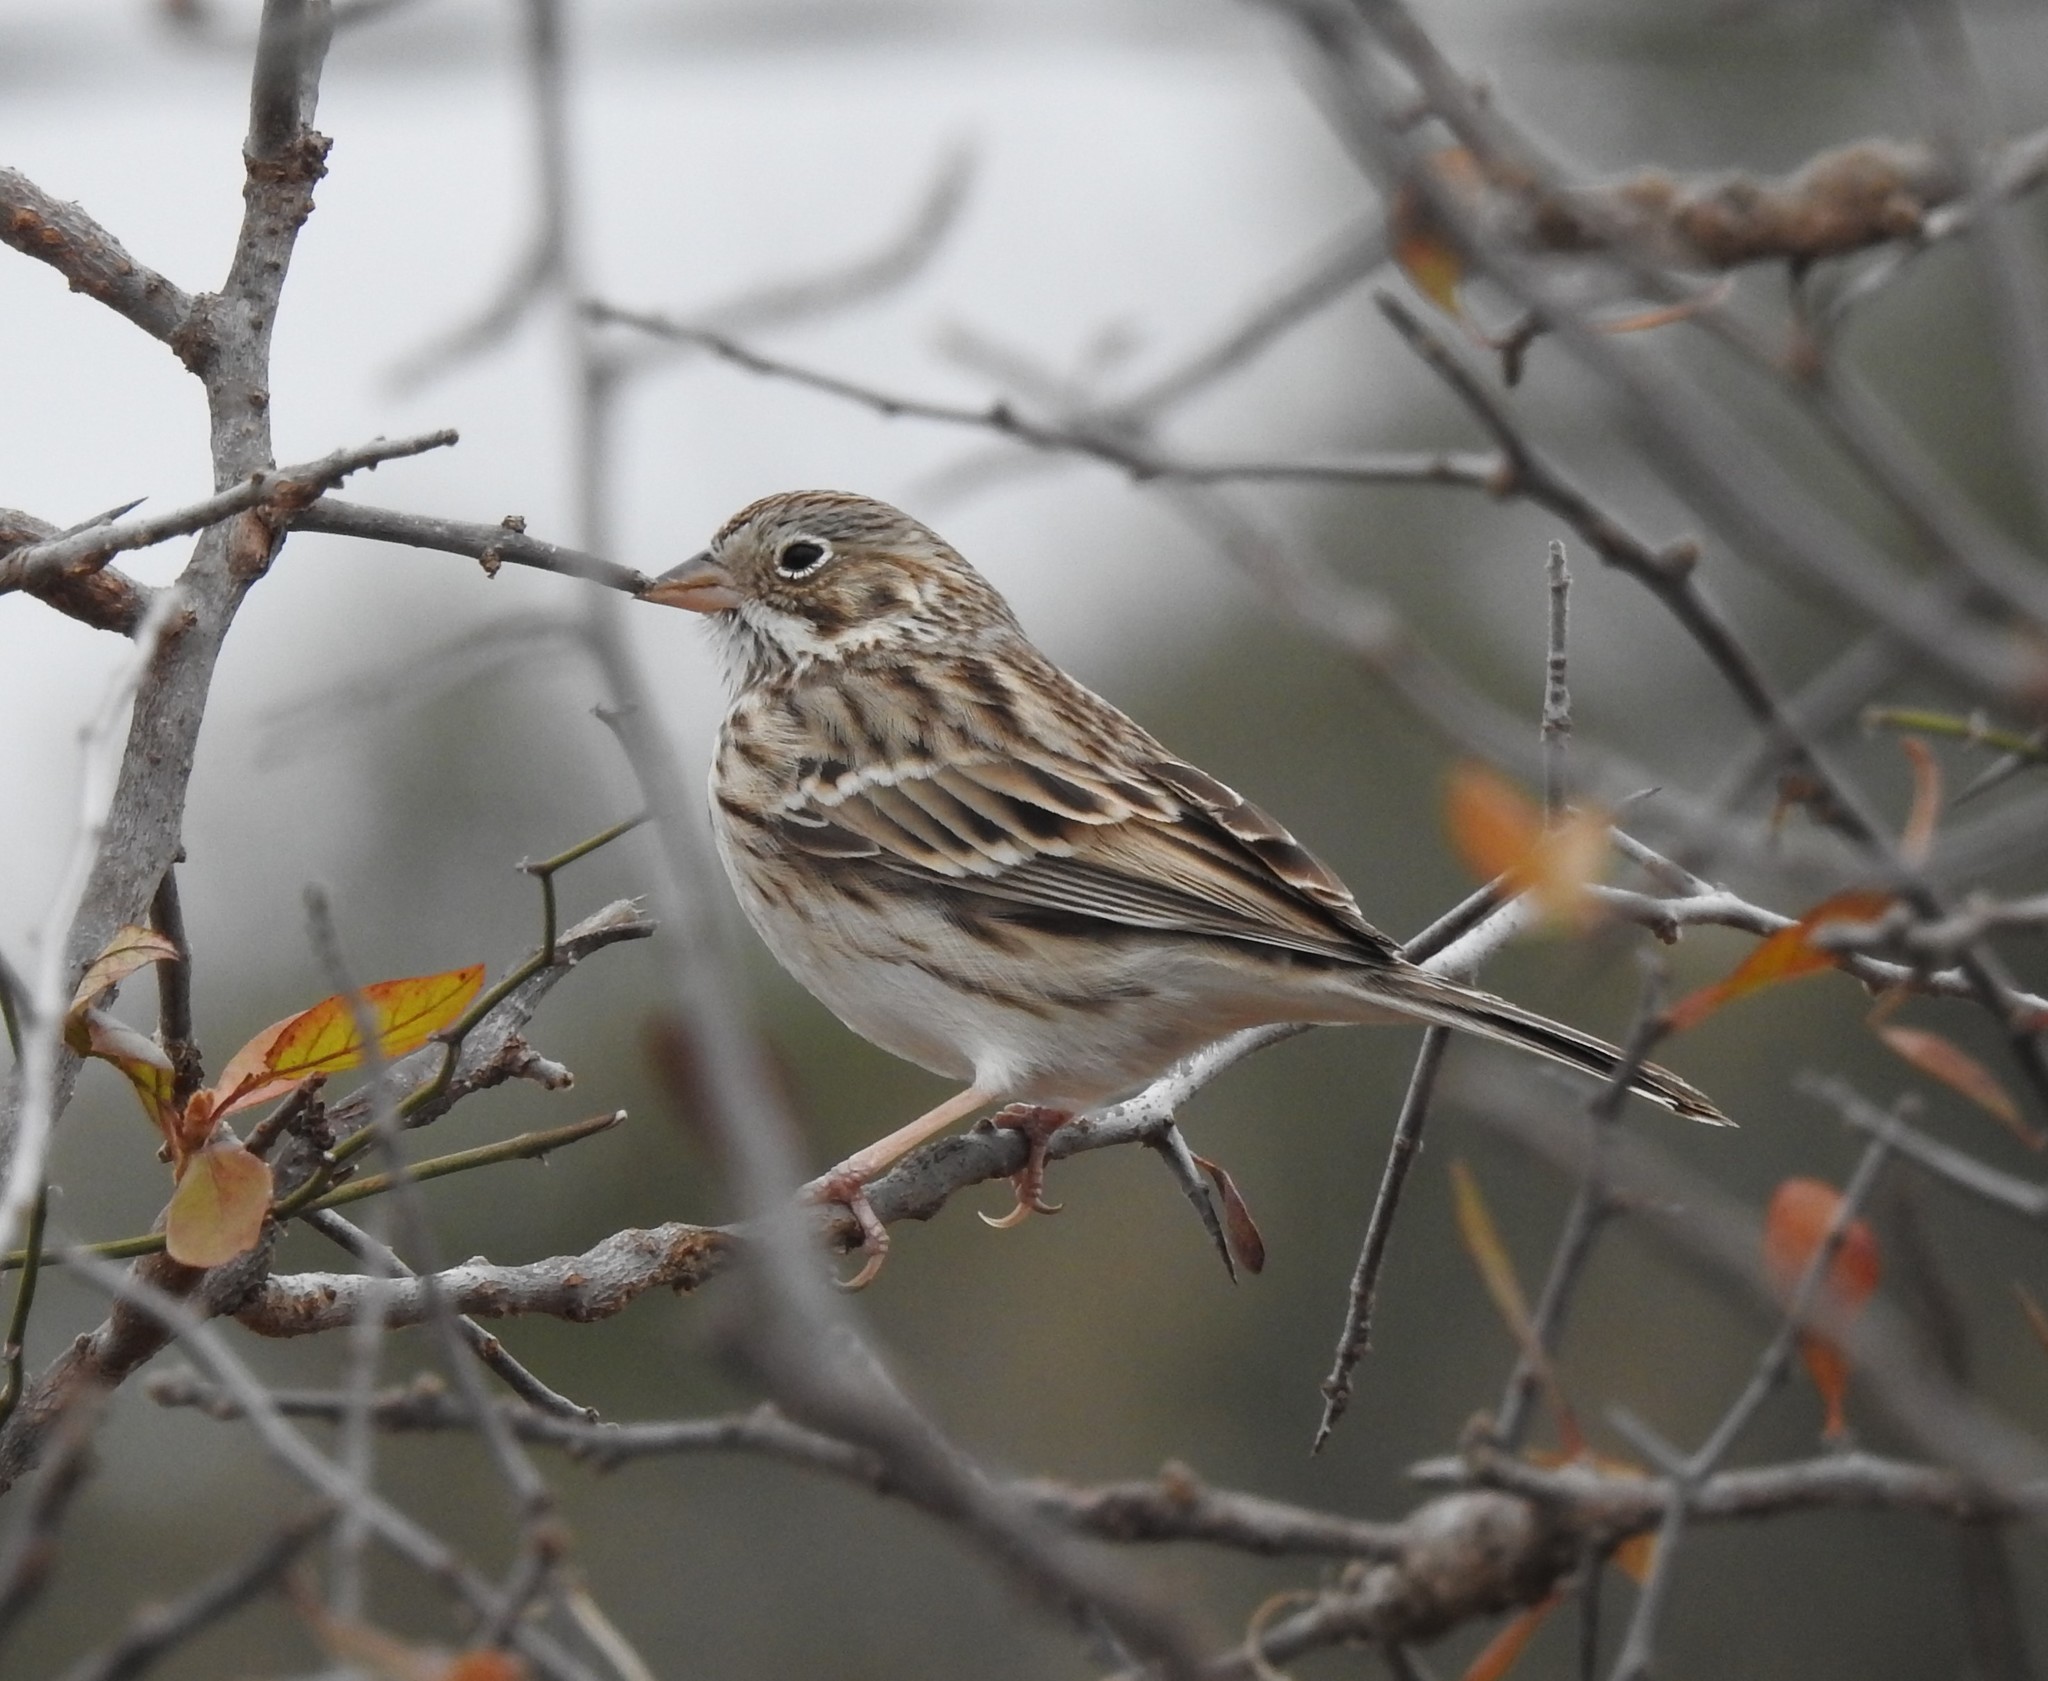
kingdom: Animalia
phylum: Chordata
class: Aves
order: Passeriformes
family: Passerellidae
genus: Pooecetes
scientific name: Pooecetes gramineus
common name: Vesper sparrow
